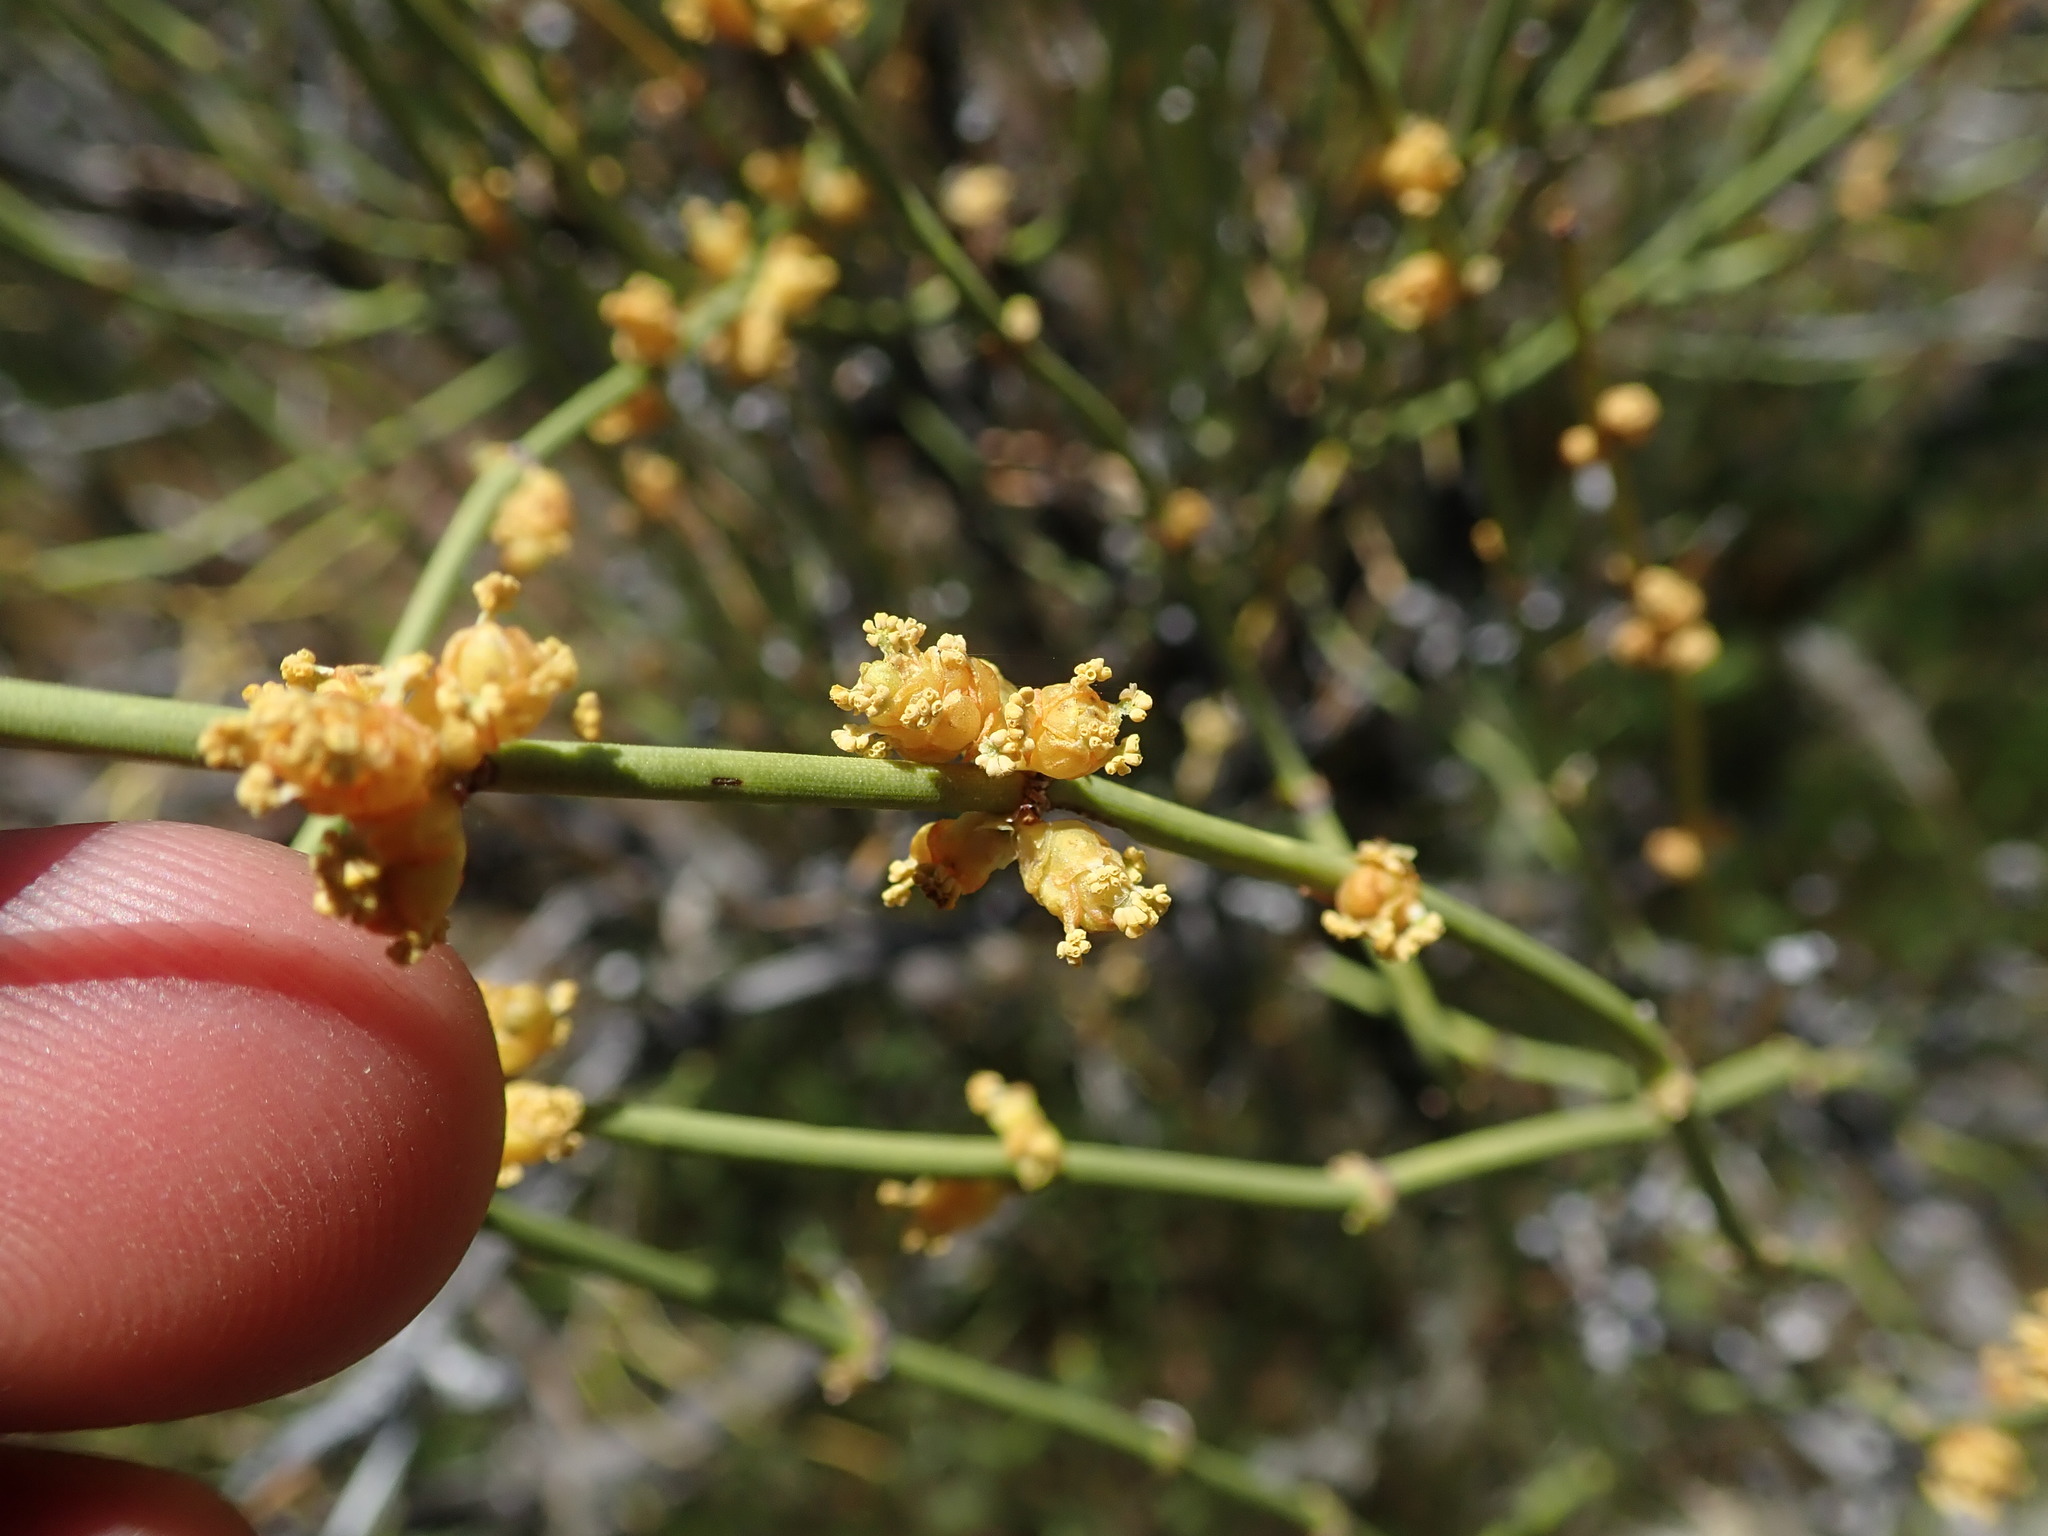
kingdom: Plantae
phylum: Tracheophyta
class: Gnetopsida
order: Ephedrales
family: Ephedraceae
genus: Ephedra
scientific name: Ephedra viridis
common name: Green ephedra
